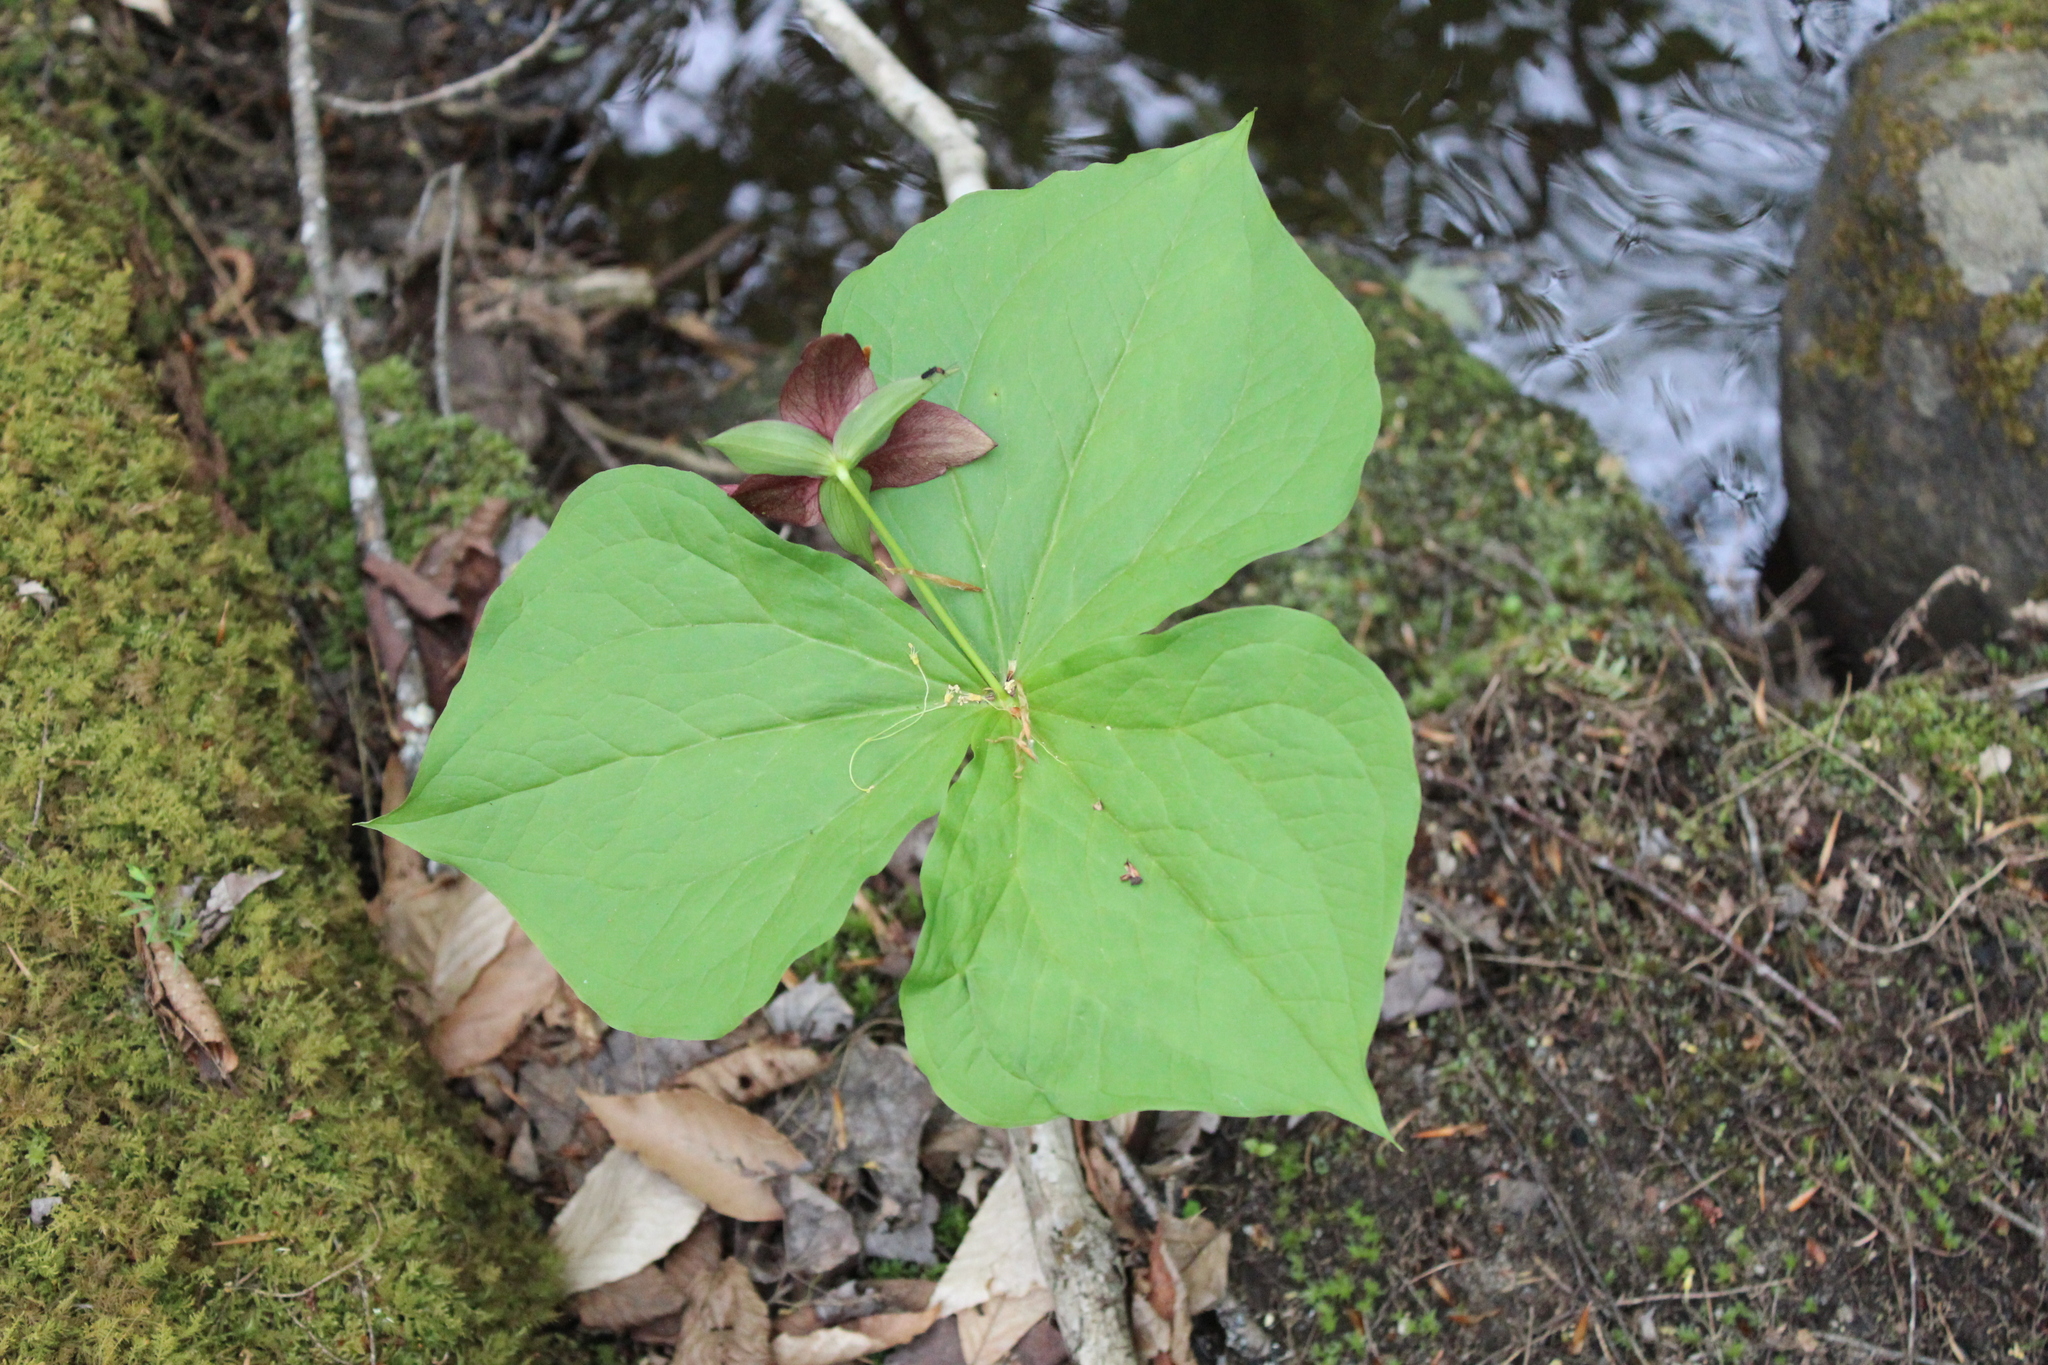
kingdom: Plantae
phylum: Tracheophyta
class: Liliopsida
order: Liliales
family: Melanthiaceae
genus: Trillium
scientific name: Trillium erectum
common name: Purple trillium
